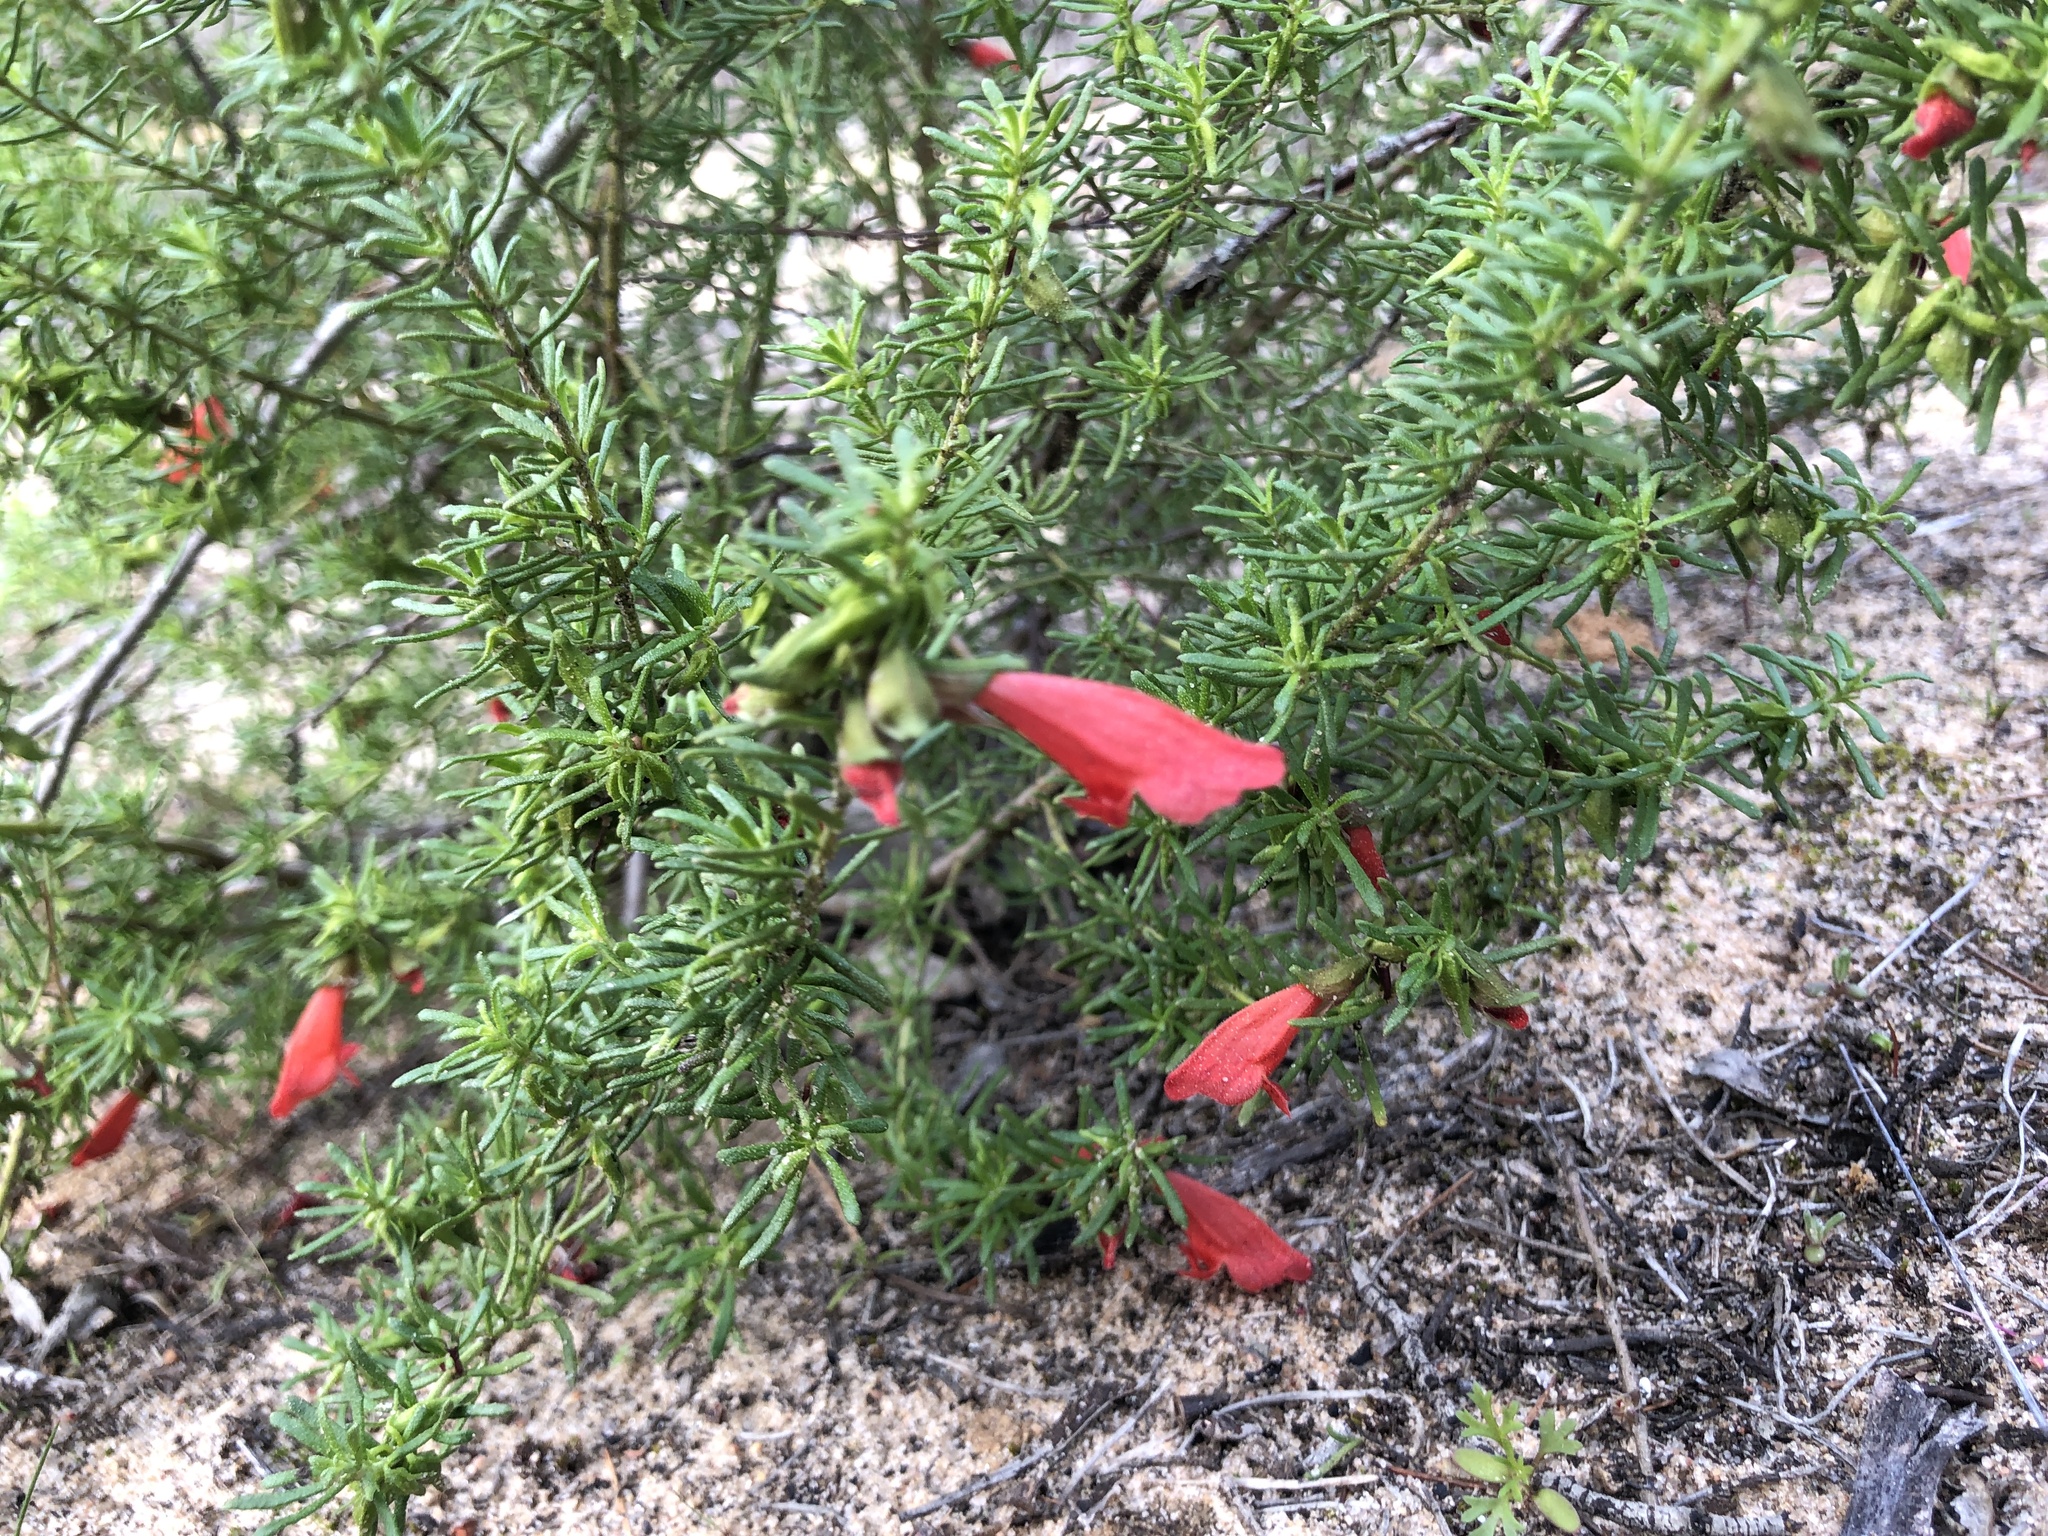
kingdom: Plantae
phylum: Tracheophyta
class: Magnoliopsida
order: Lamiales
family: Lamiaceae
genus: Prostanthera
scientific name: Prostanthera aspalathoides
